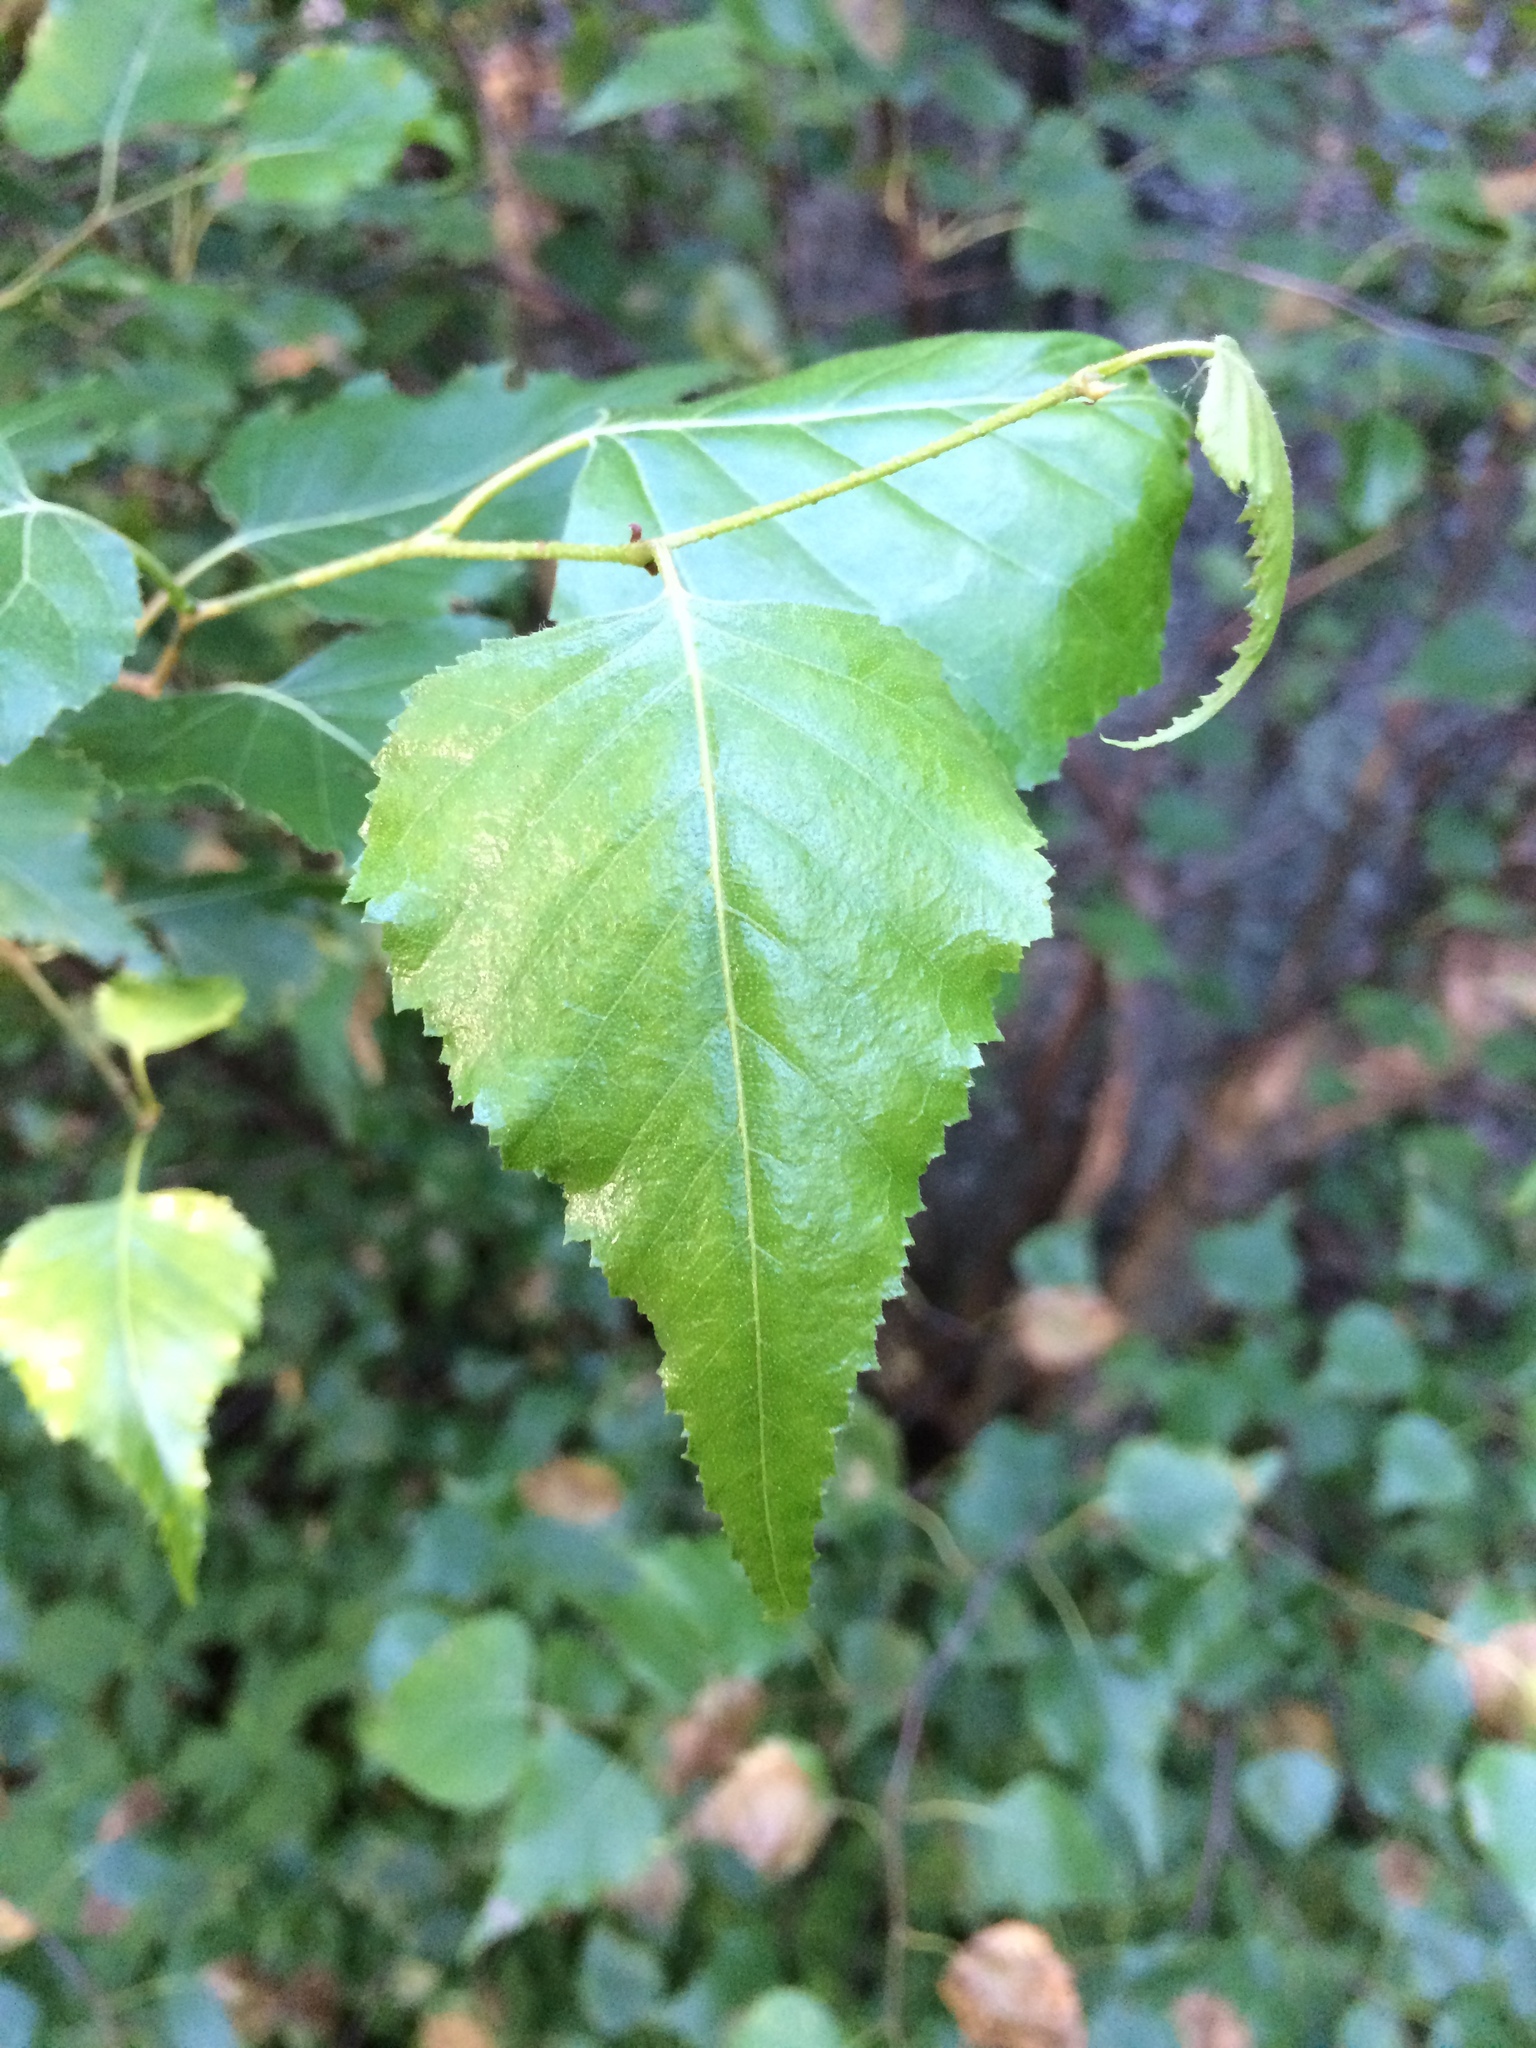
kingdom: Plantae
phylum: Tracheophyta
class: Magnoliopsida
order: Fagales
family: Betulaceae
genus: Betula
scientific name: Betula populifolia
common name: Fire birch
